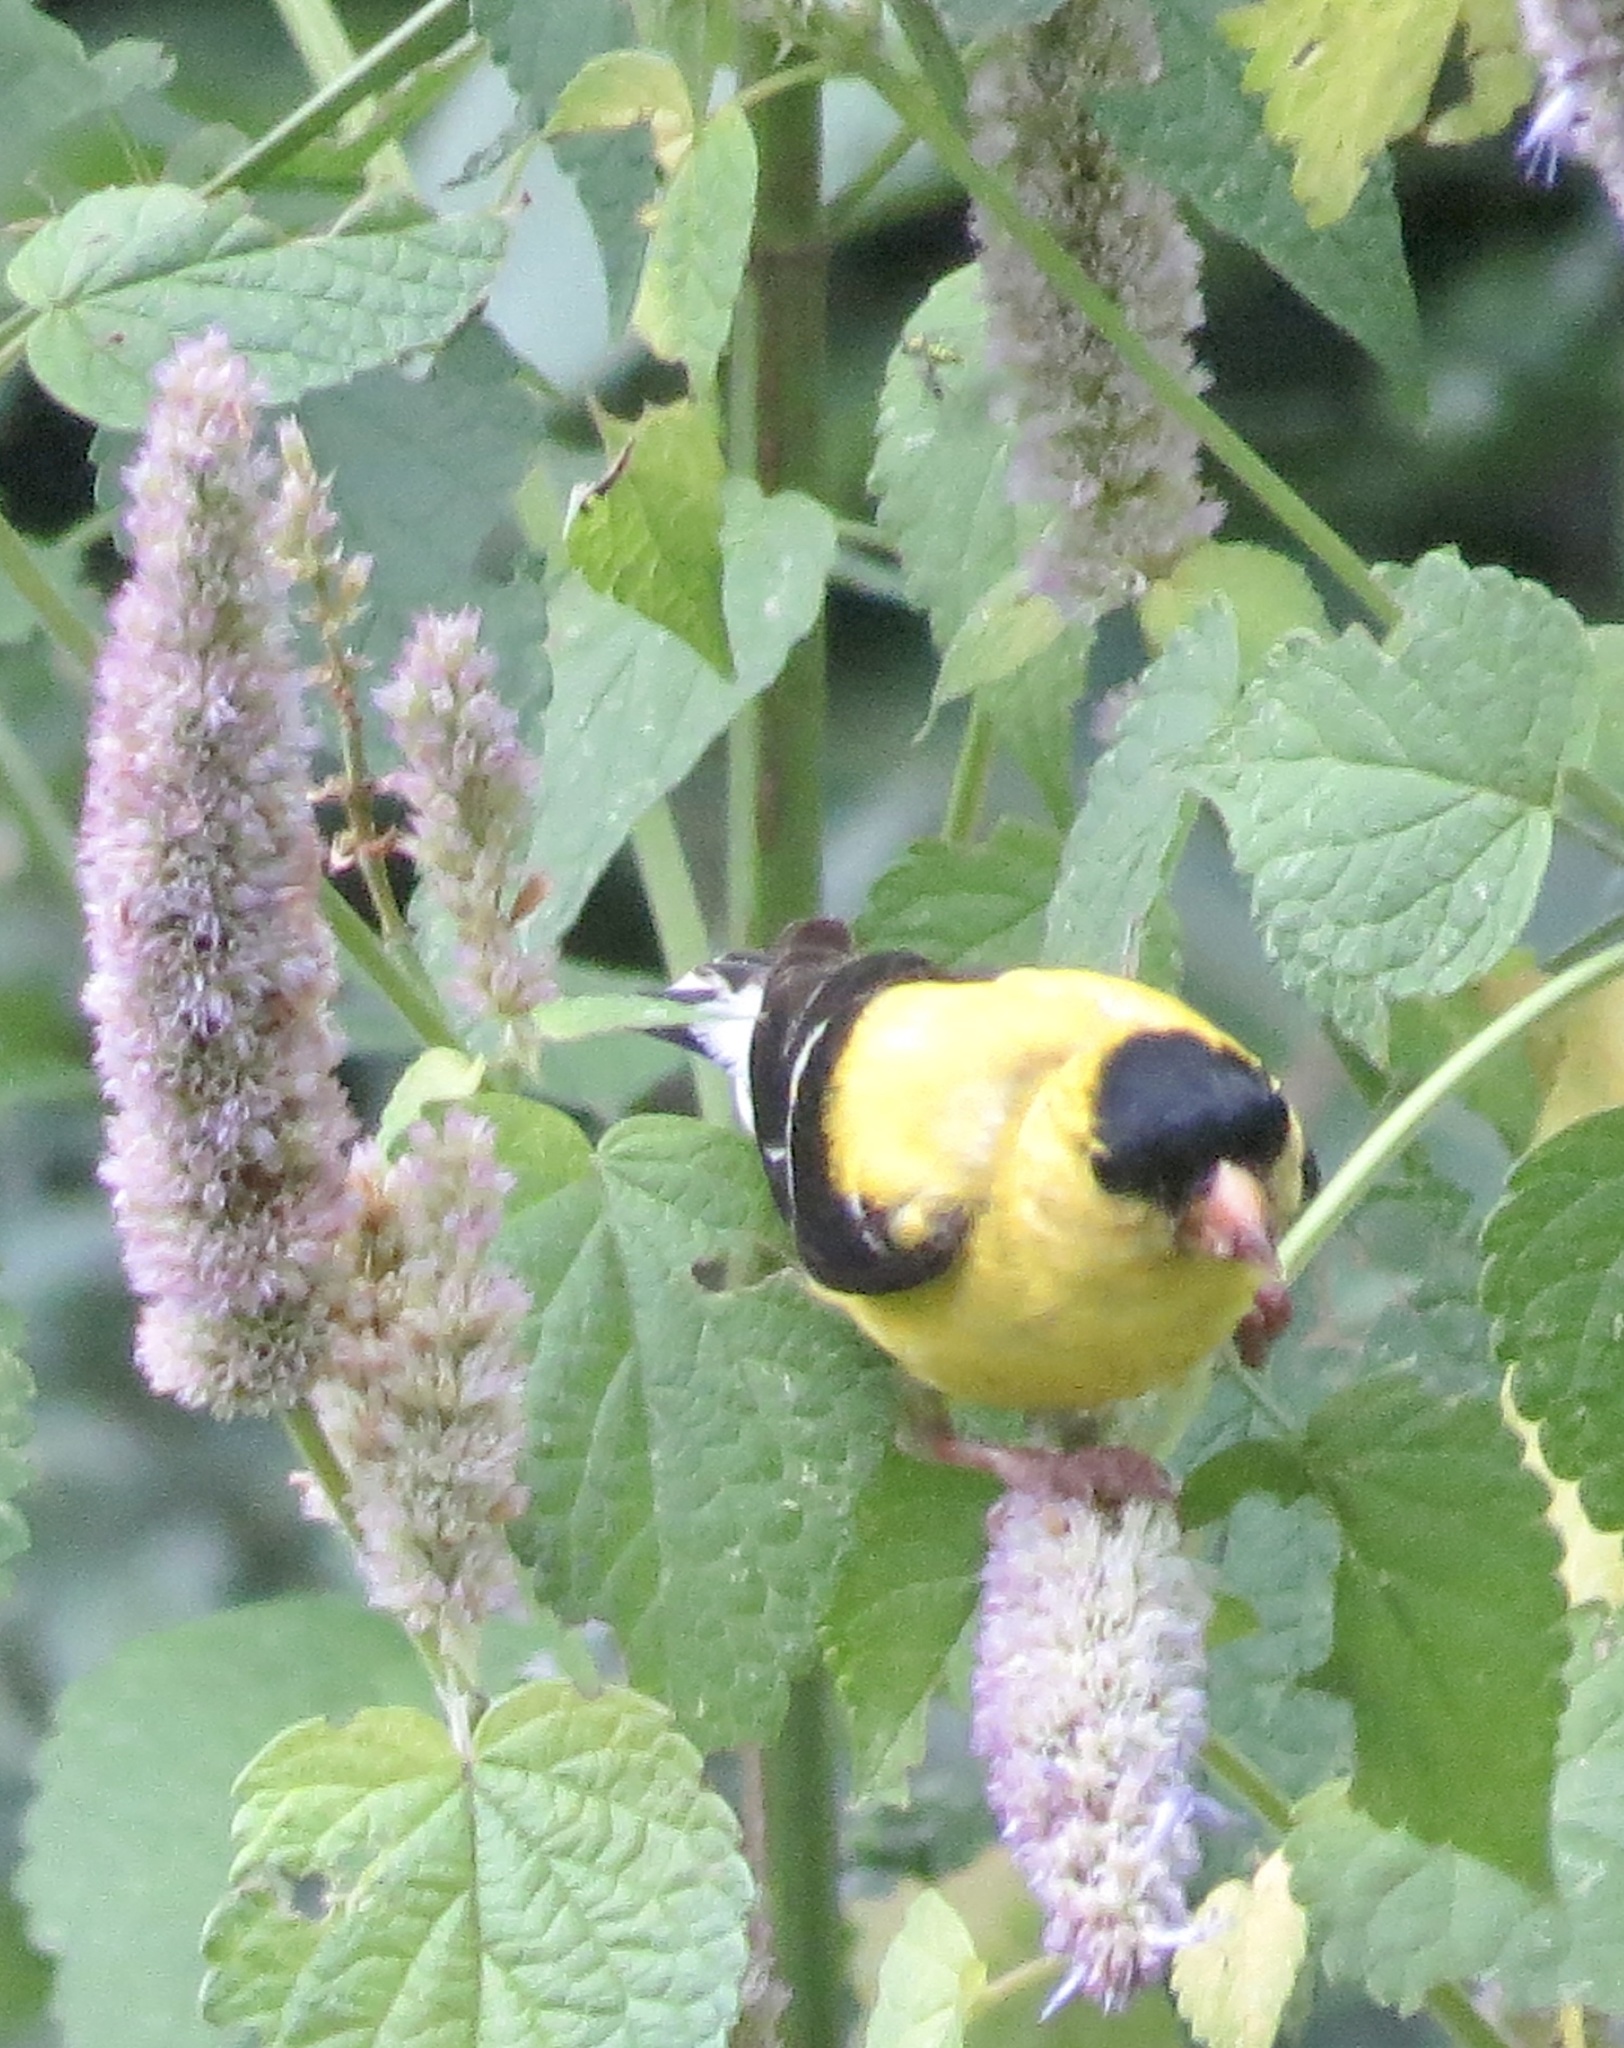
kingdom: Animalia
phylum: Chordata
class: Aves
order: Passeriformes
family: Fringillidae
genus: Spinus
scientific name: Spinus tristis
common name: American goldfinch
